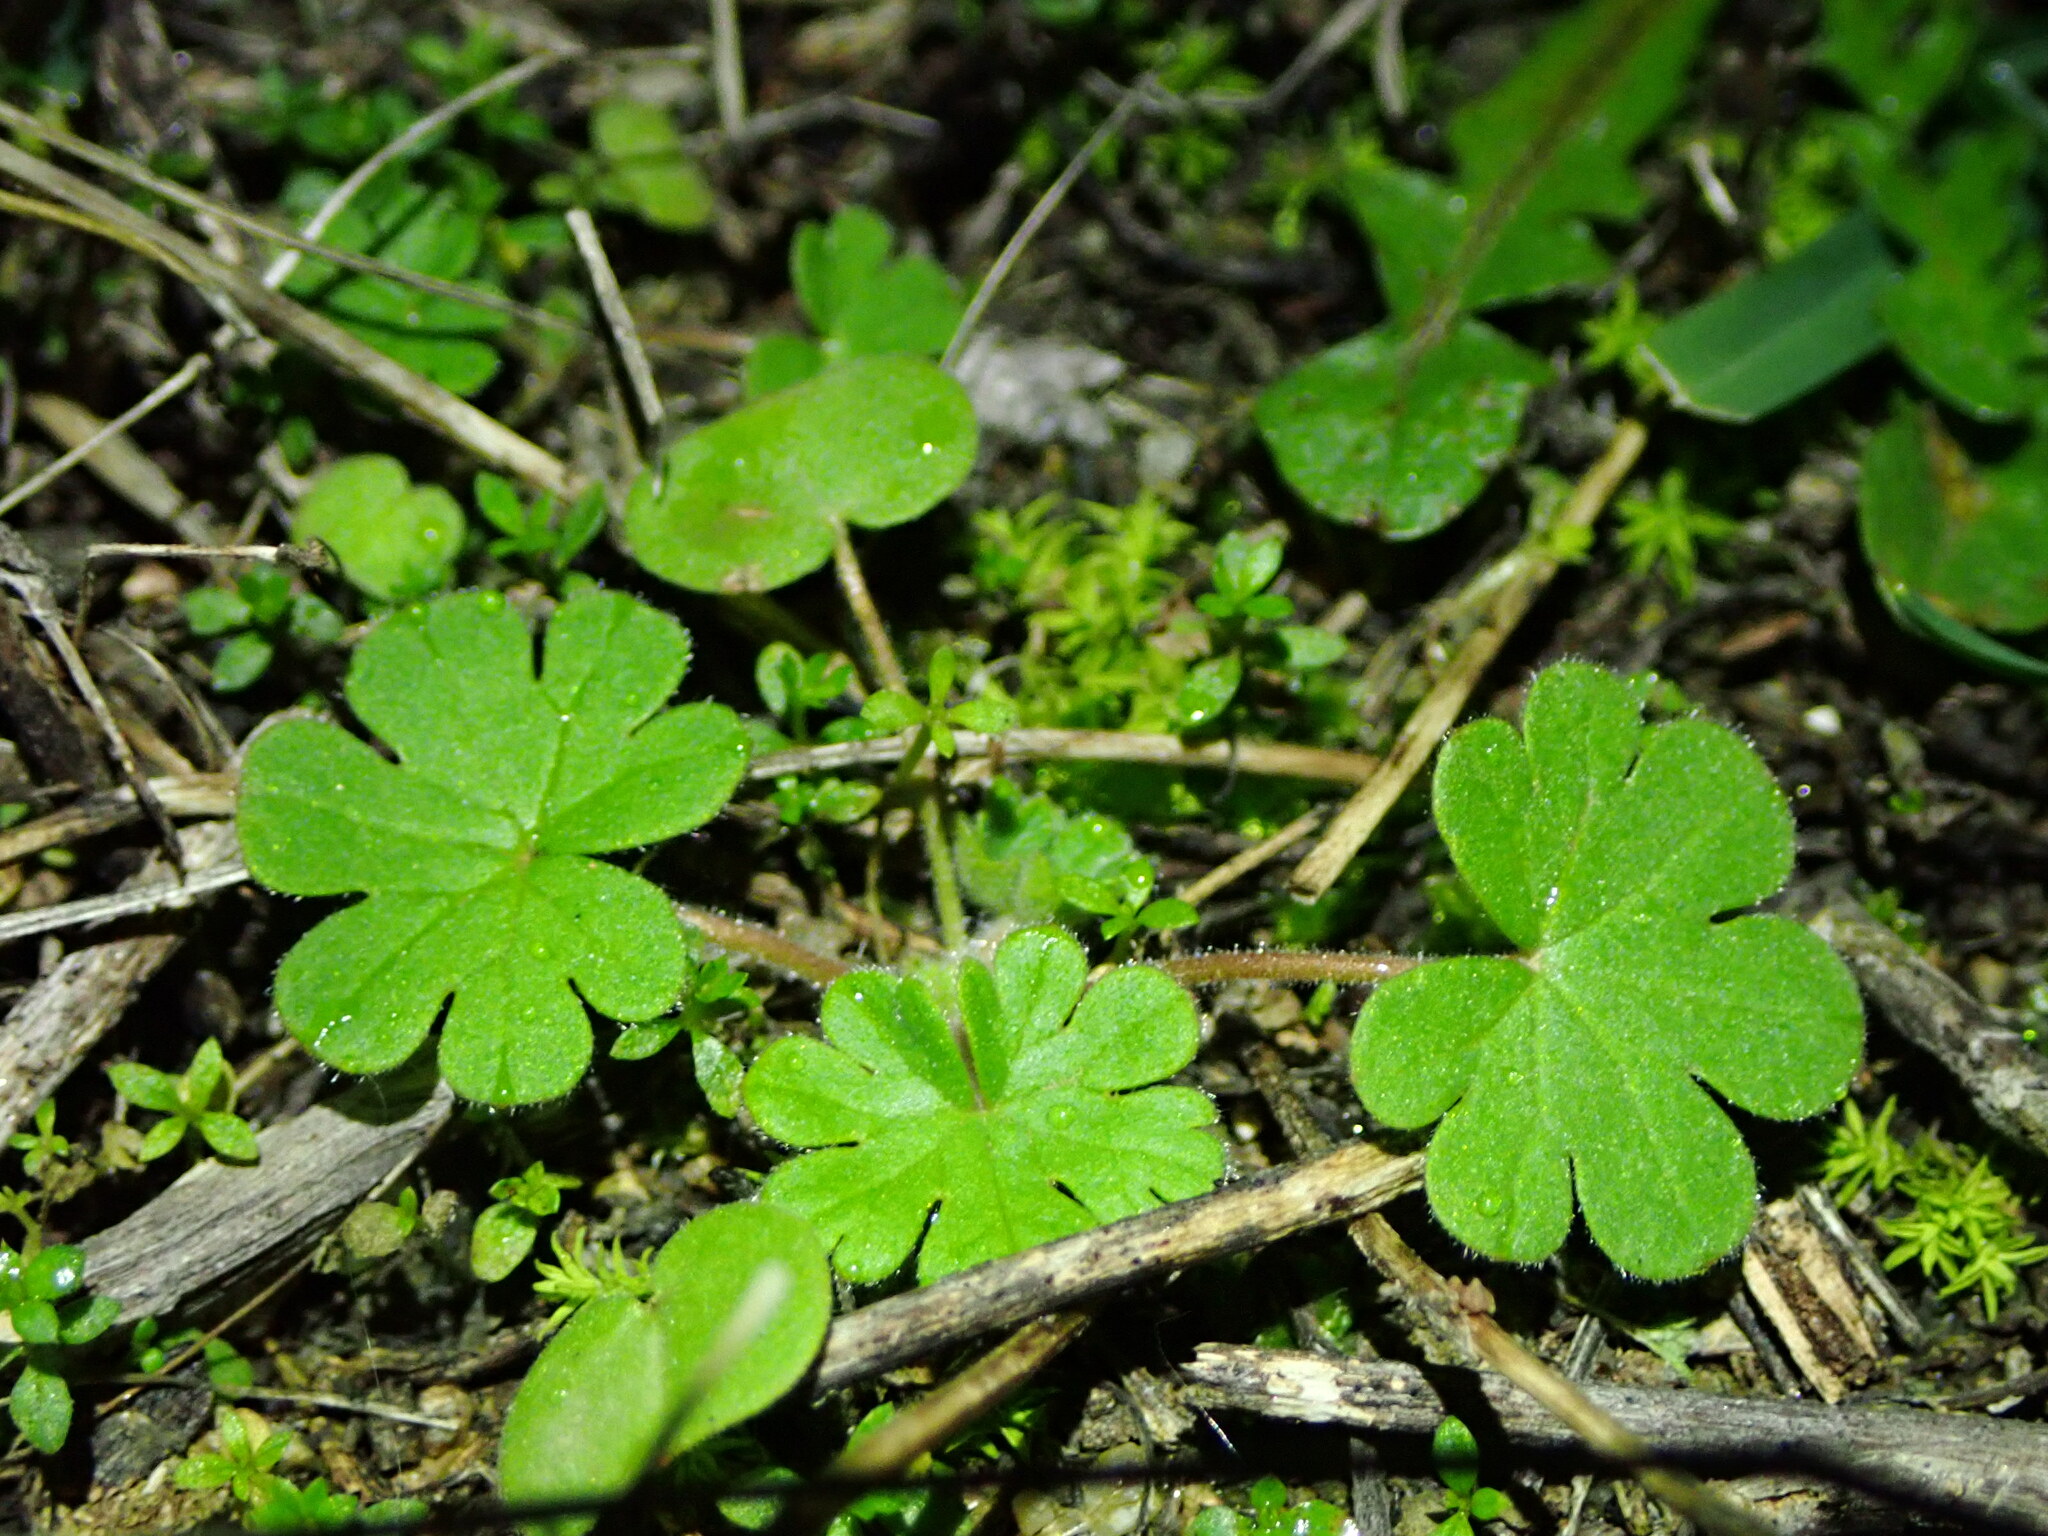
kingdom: Plantae
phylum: Tracheophyta
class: Magnoliopsida
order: Geraniales
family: Geraniaceae
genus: Geranium
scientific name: Geranium molle
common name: Dove's-foot crane's-bill
